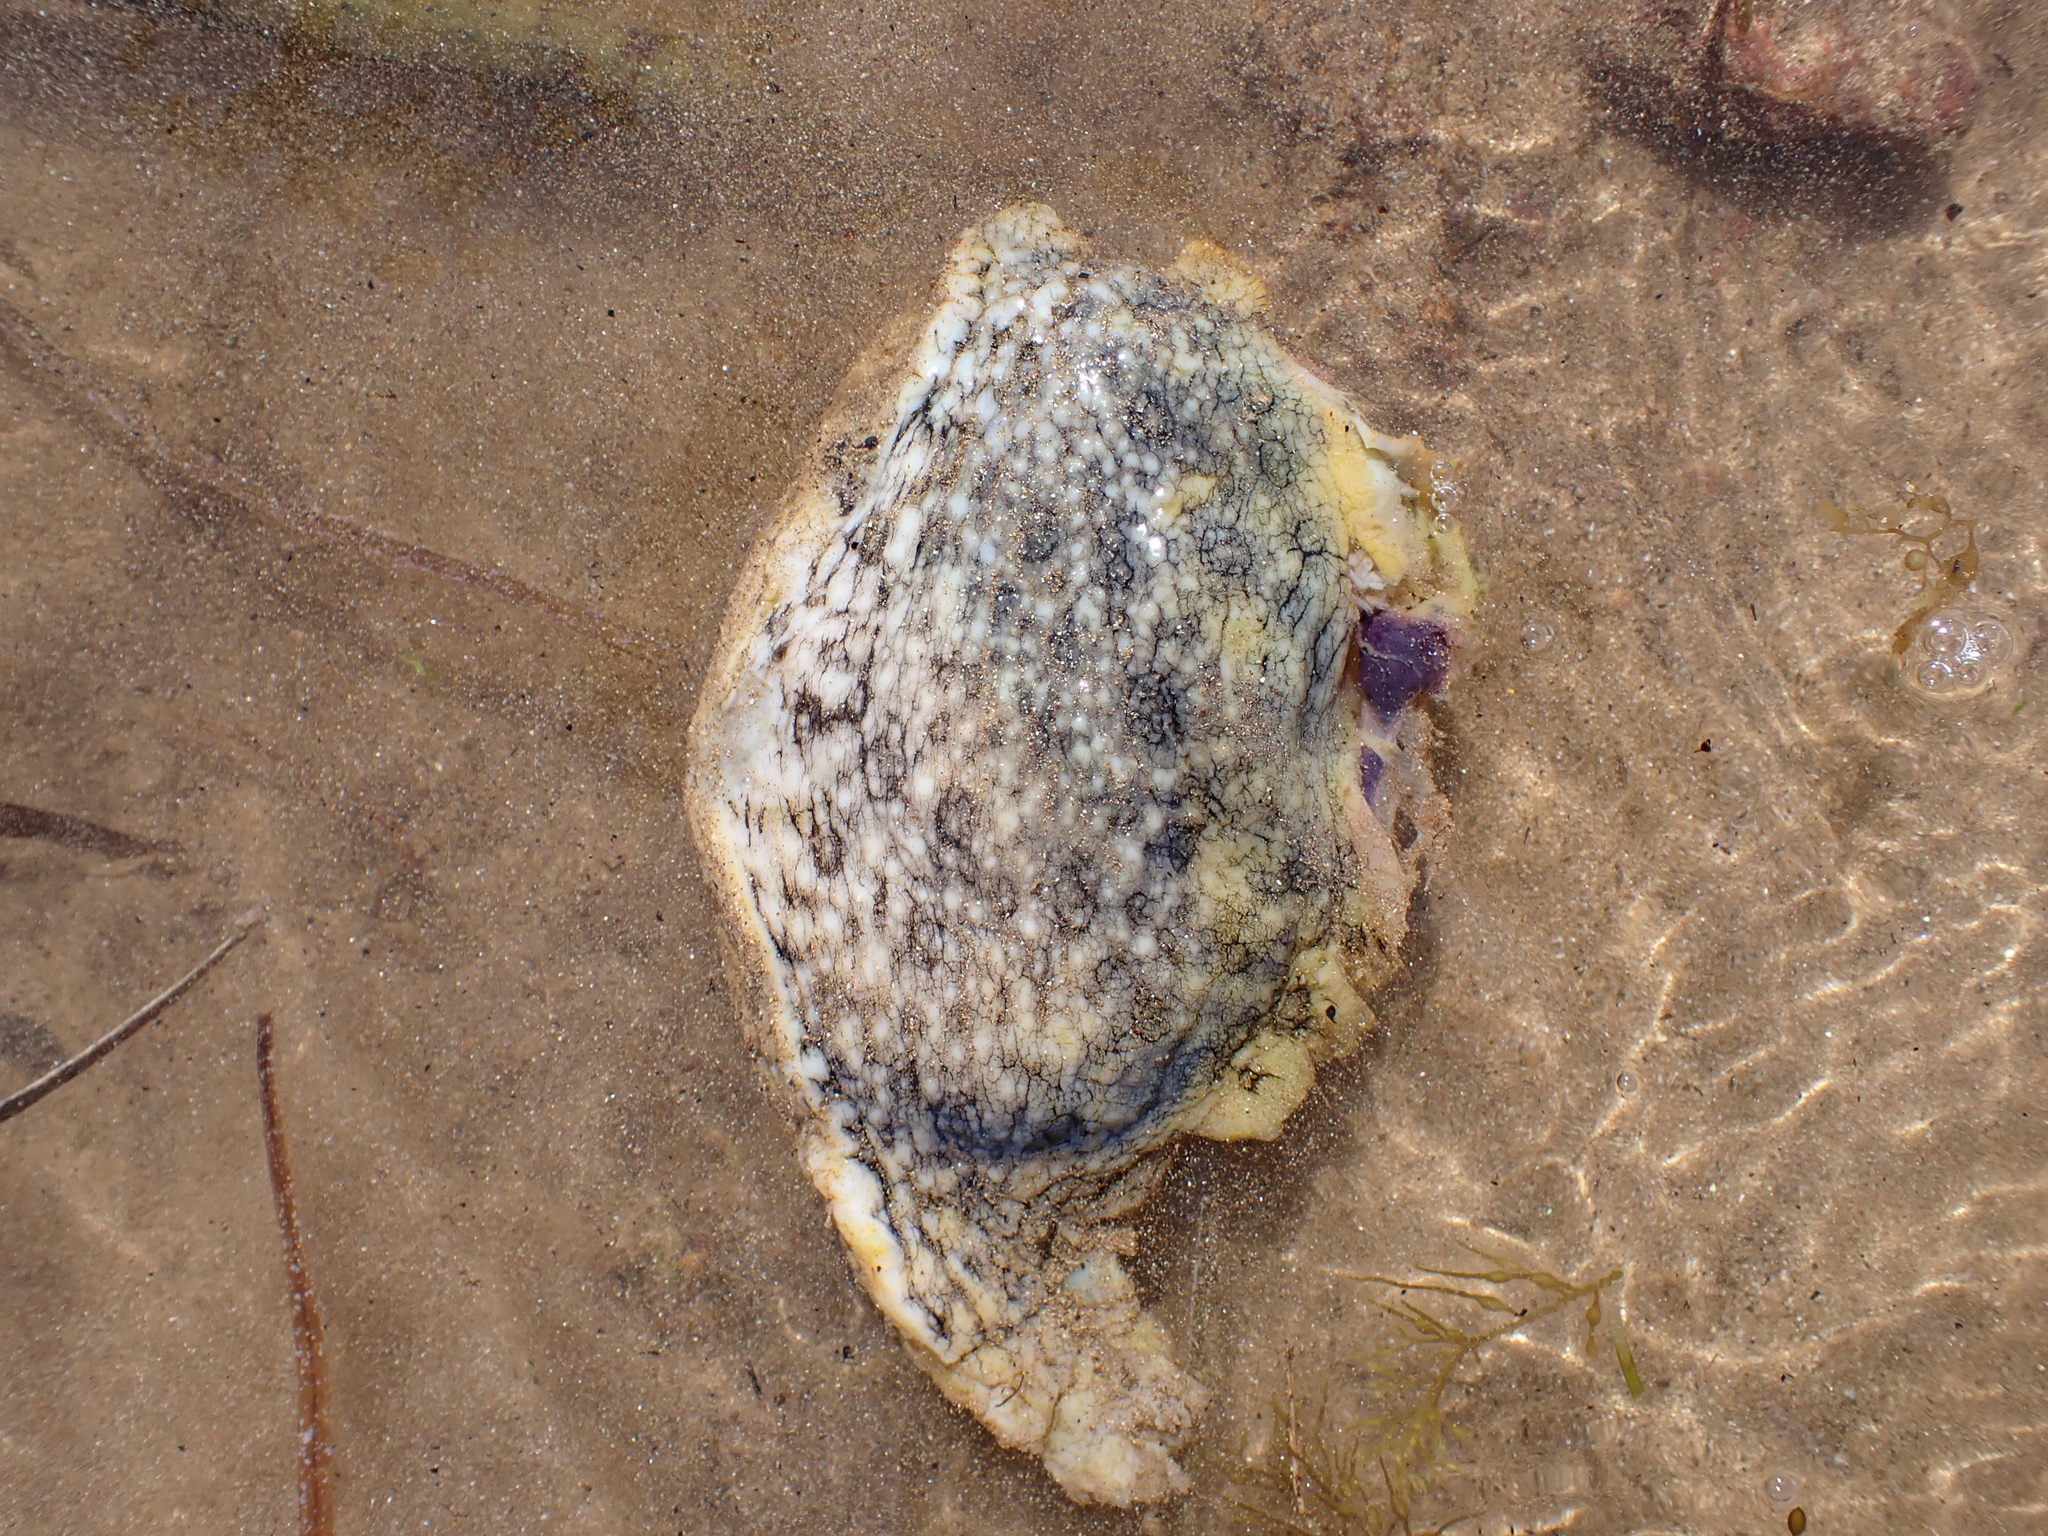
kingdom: Animalia
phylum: Mollusca
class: Gastropoda
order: Aplysiida
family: Aplysiidae
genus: Aplysia
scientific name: Aplysia argus
